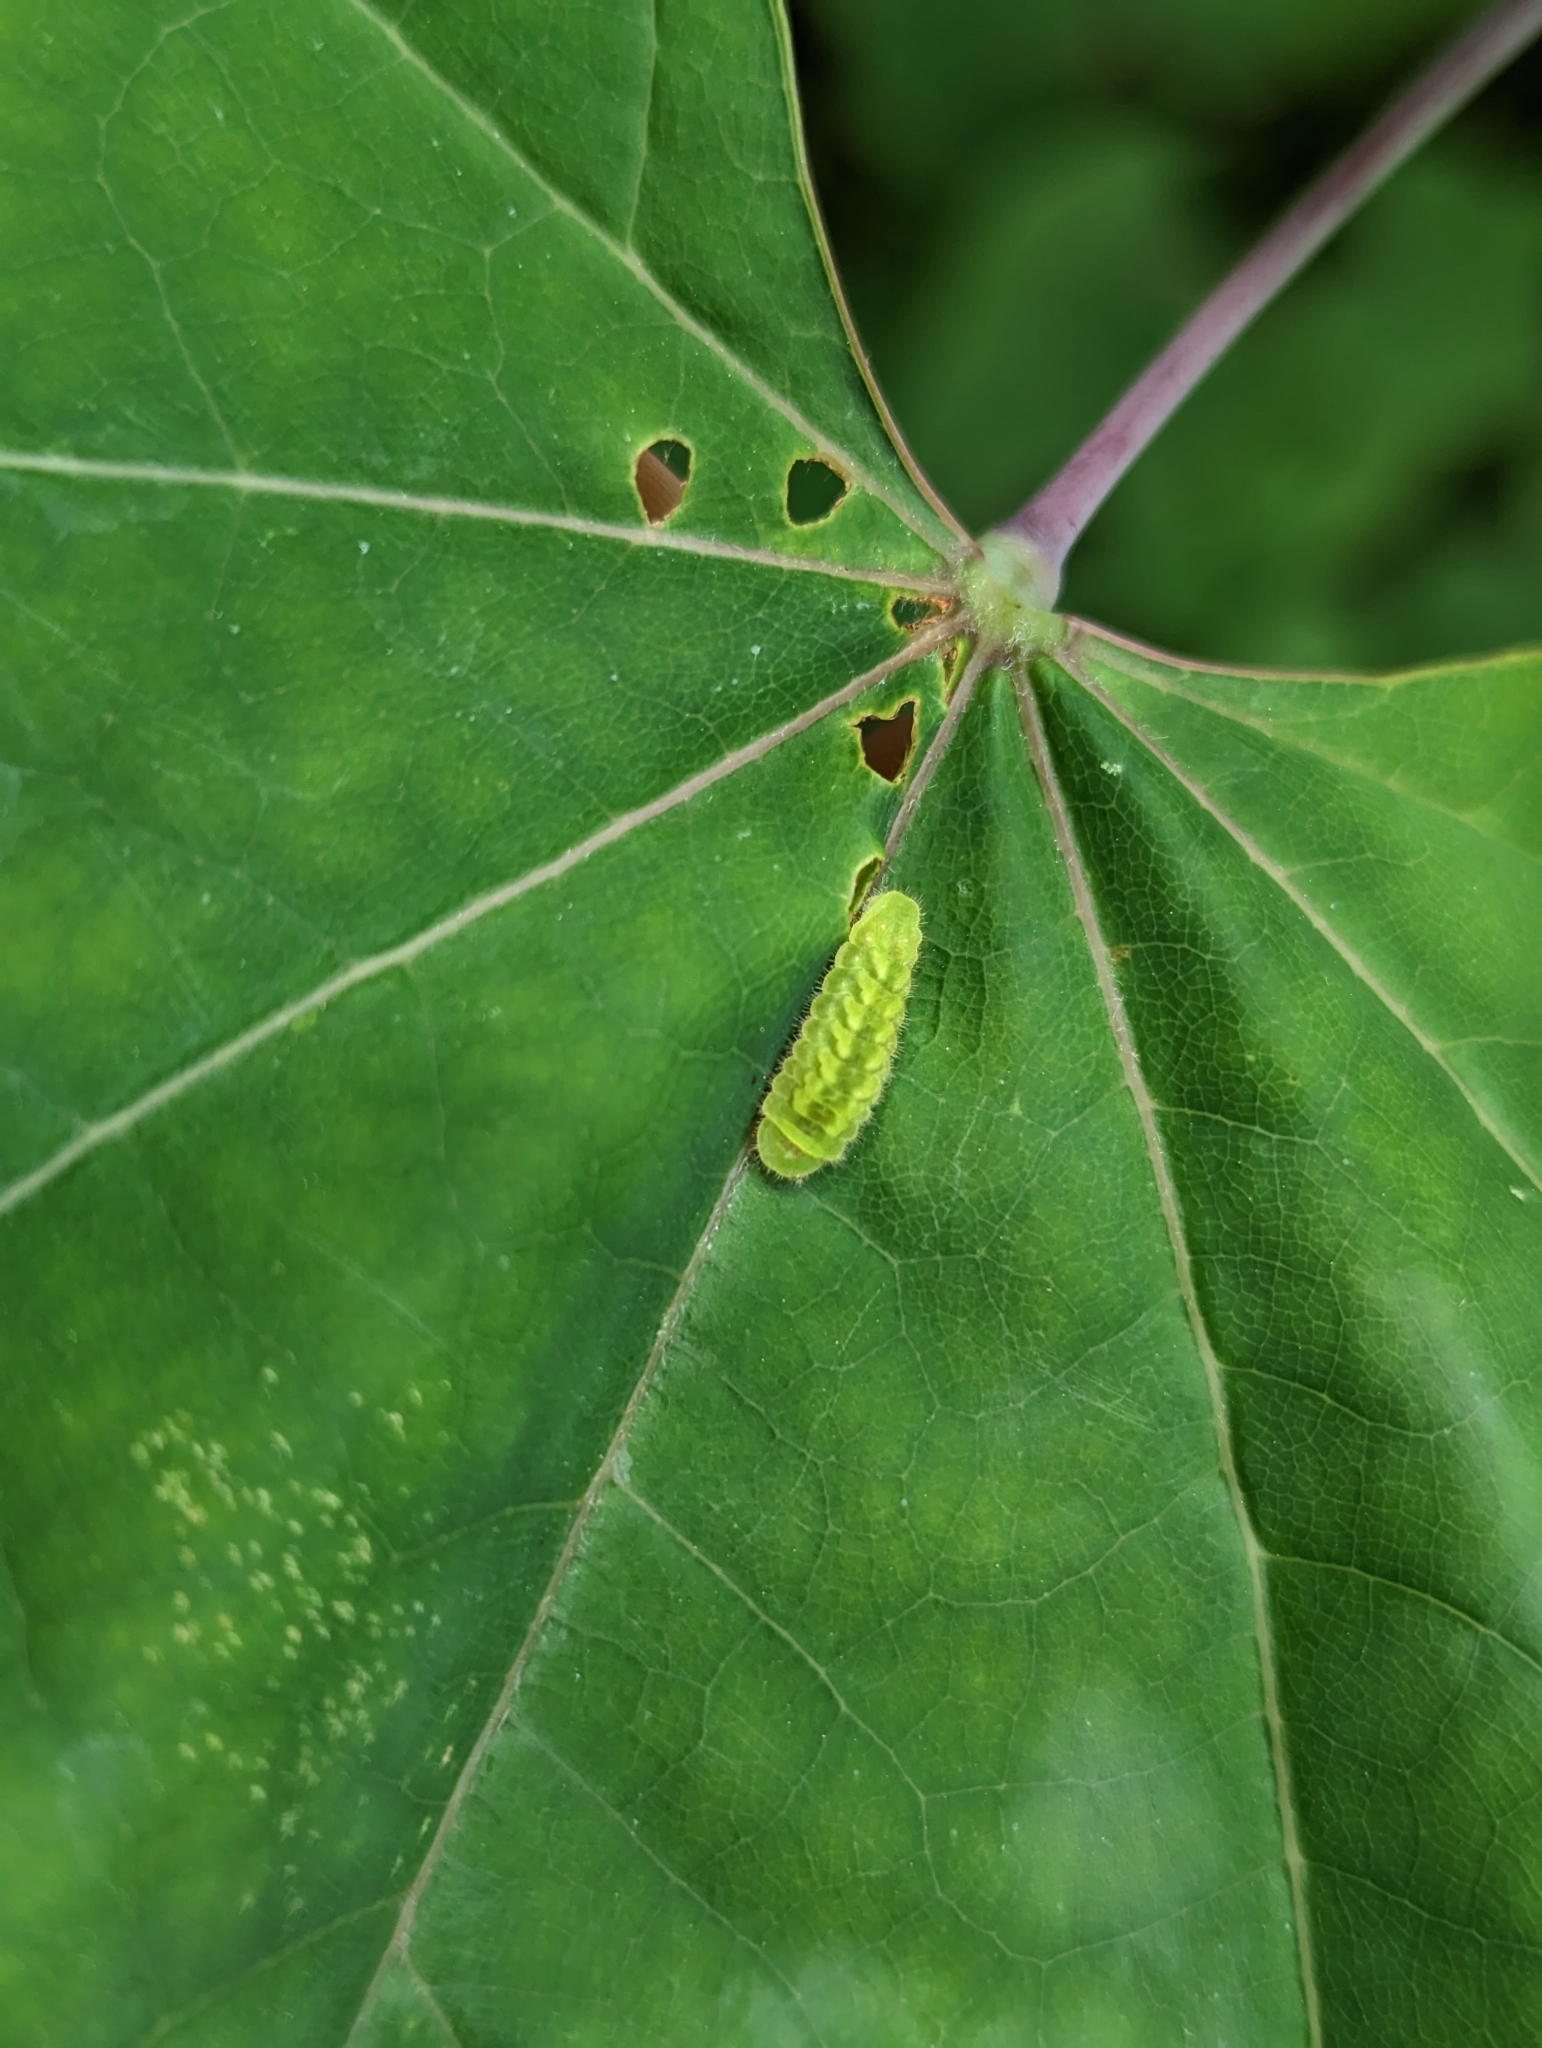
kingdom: Animalia
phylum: Arthropoda
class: Insecta
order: Lepidoptera
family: Lycaenidae
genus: Incisalia
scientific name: Incisalia henrici
